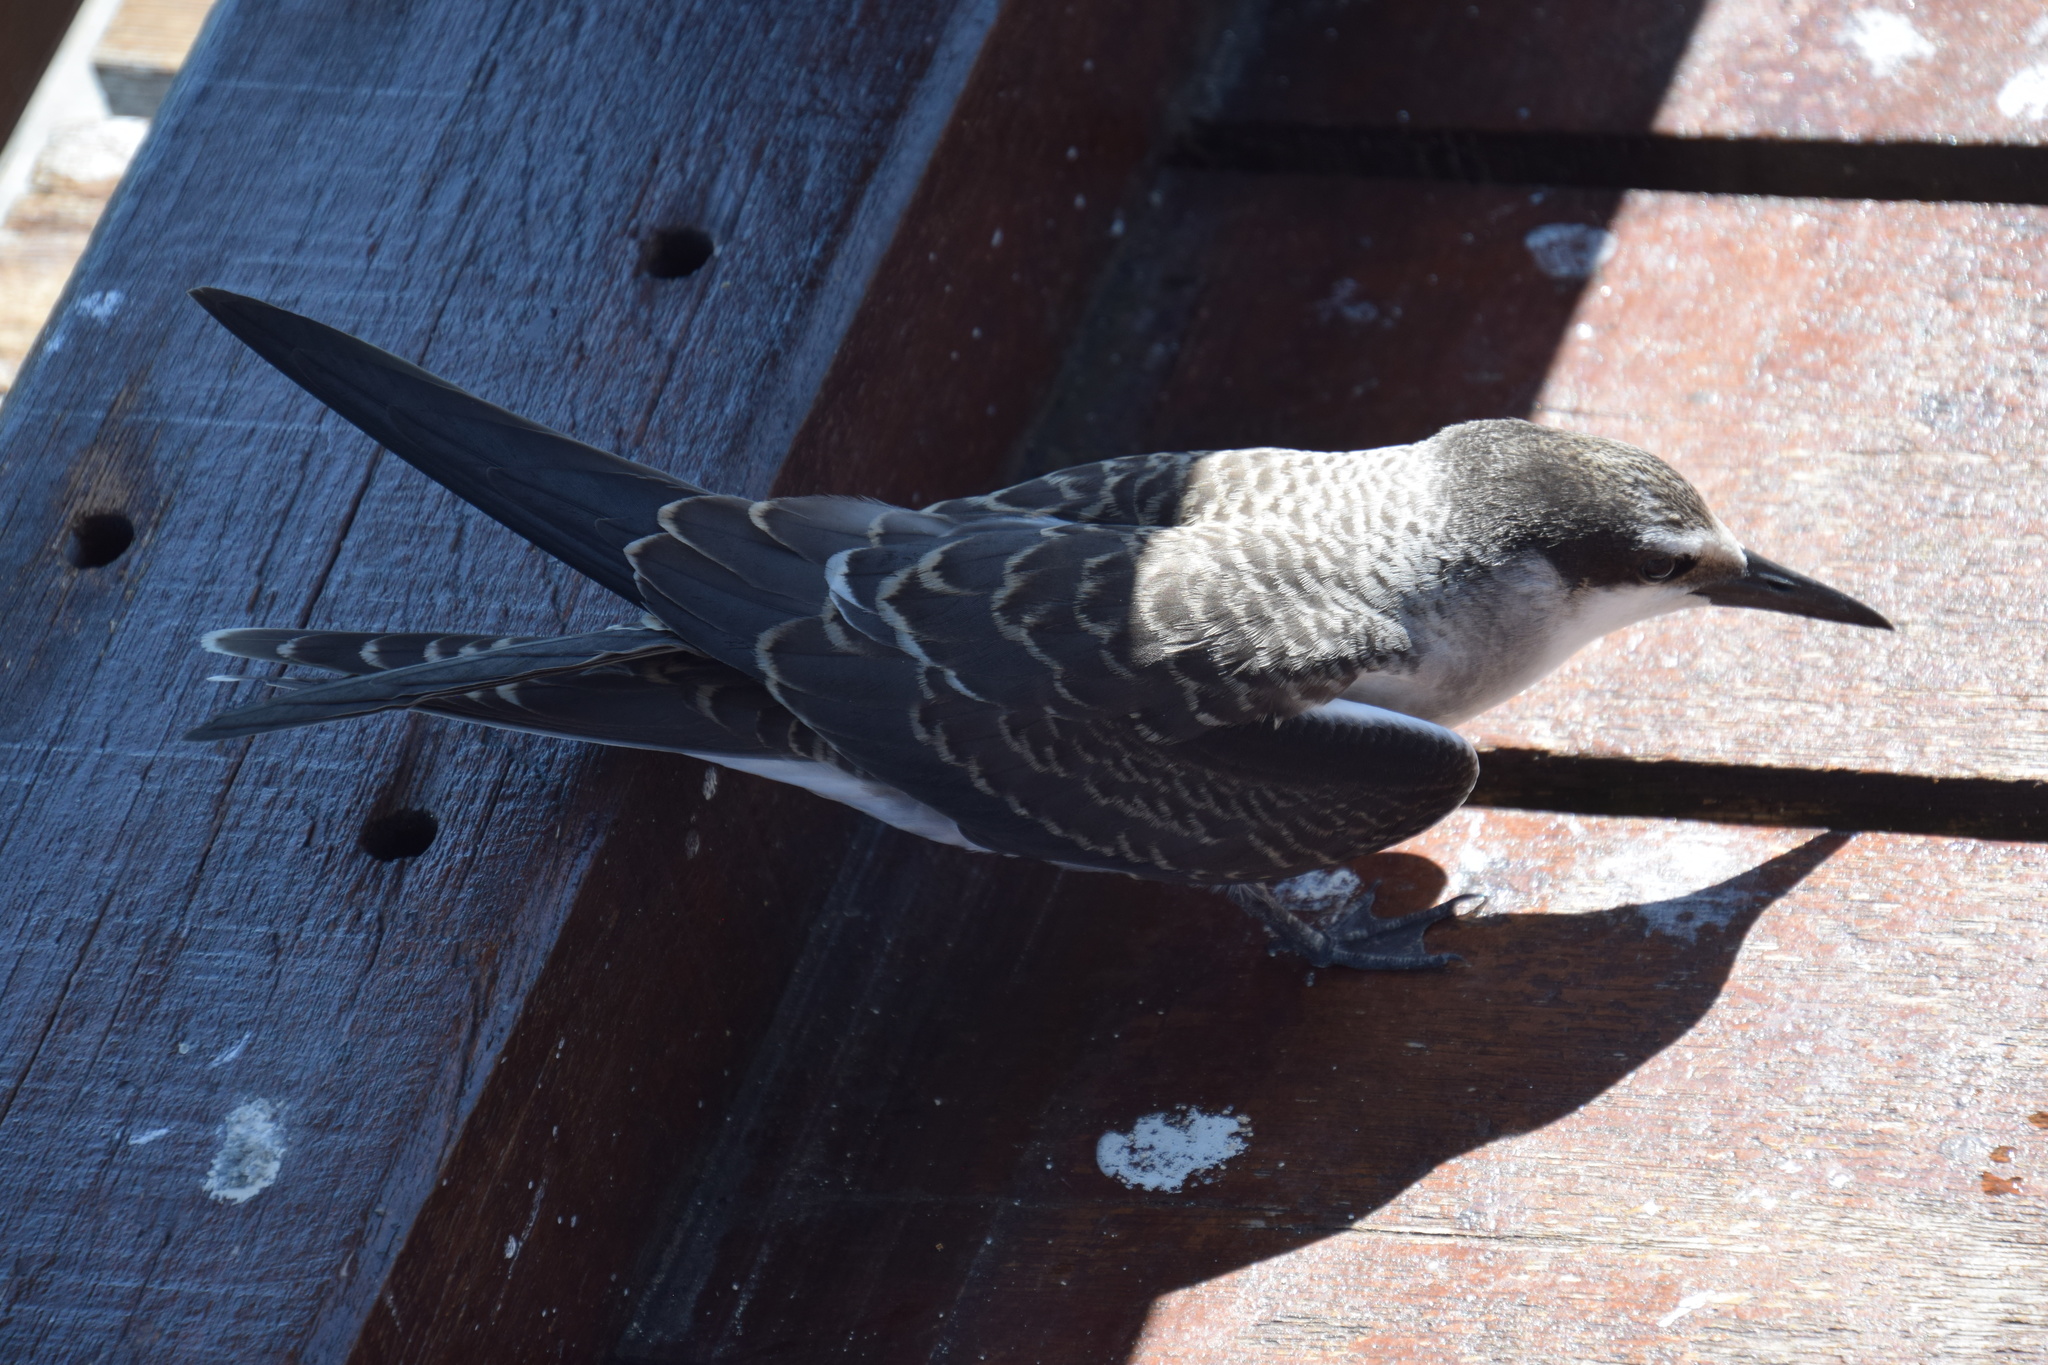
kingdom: Animalia
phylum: Chordata
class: Aves
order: Charadriiformes
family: Laridae
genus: Onychoprion
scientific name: Onychoprion anaethetus
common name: Bridled tern
